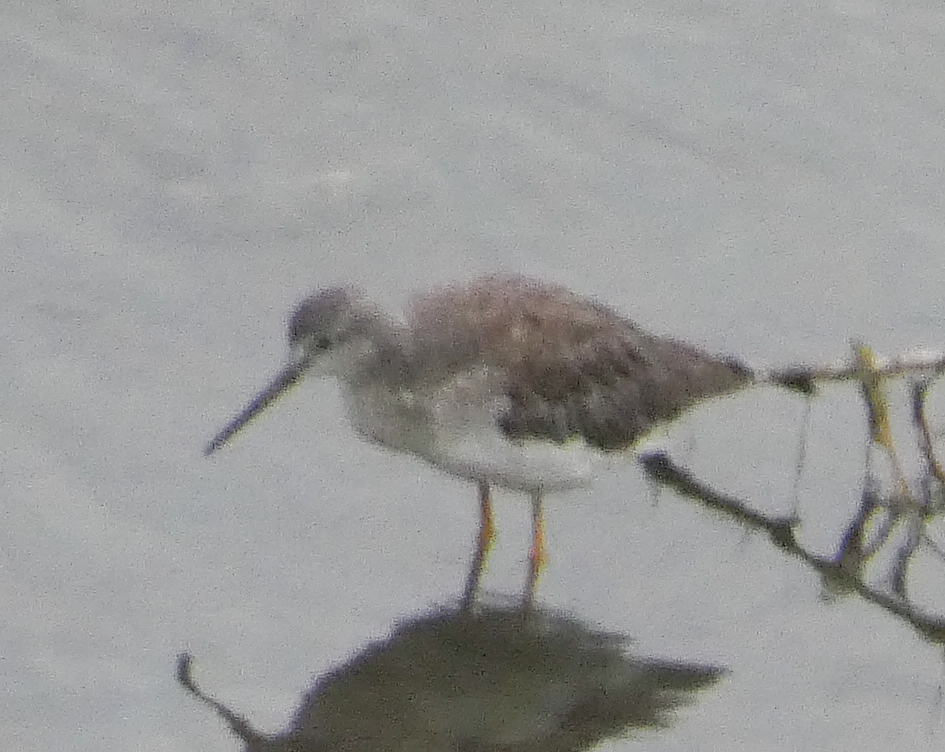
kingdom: Animalia
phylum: Chordata
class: Aves
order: Charadriiformes
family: Scolopacidae
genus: Tringa
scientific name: Tringa melanoleuca
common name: Greater yellowlegs
